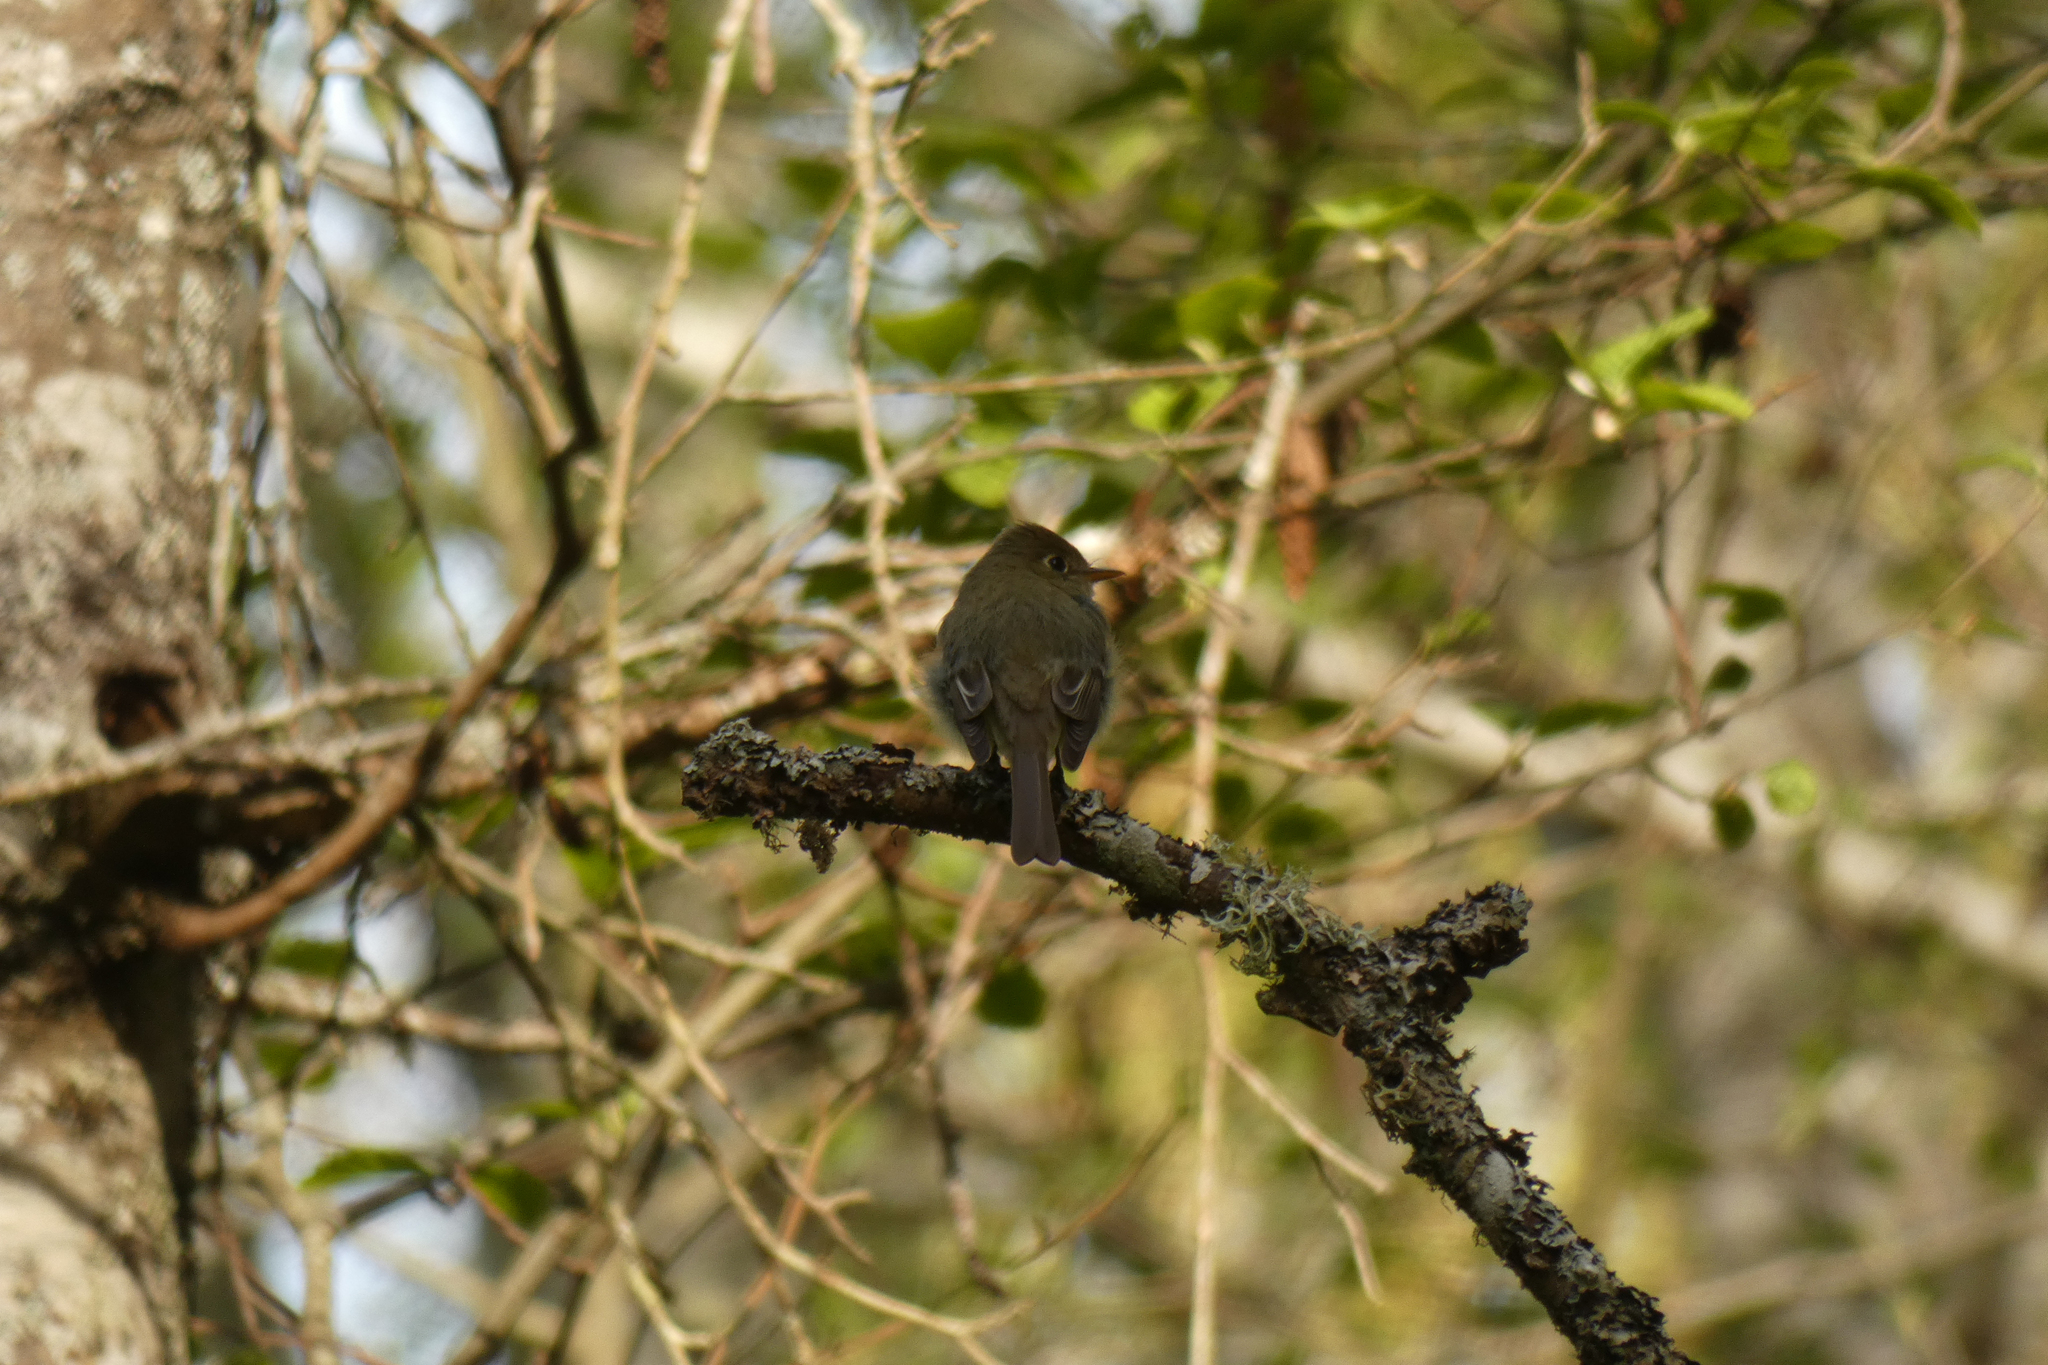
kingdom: Animalia
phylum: Chordata
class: Aves
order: Passeriformes
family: Tyrannidae
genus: Empidonax
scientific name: Empidonax
